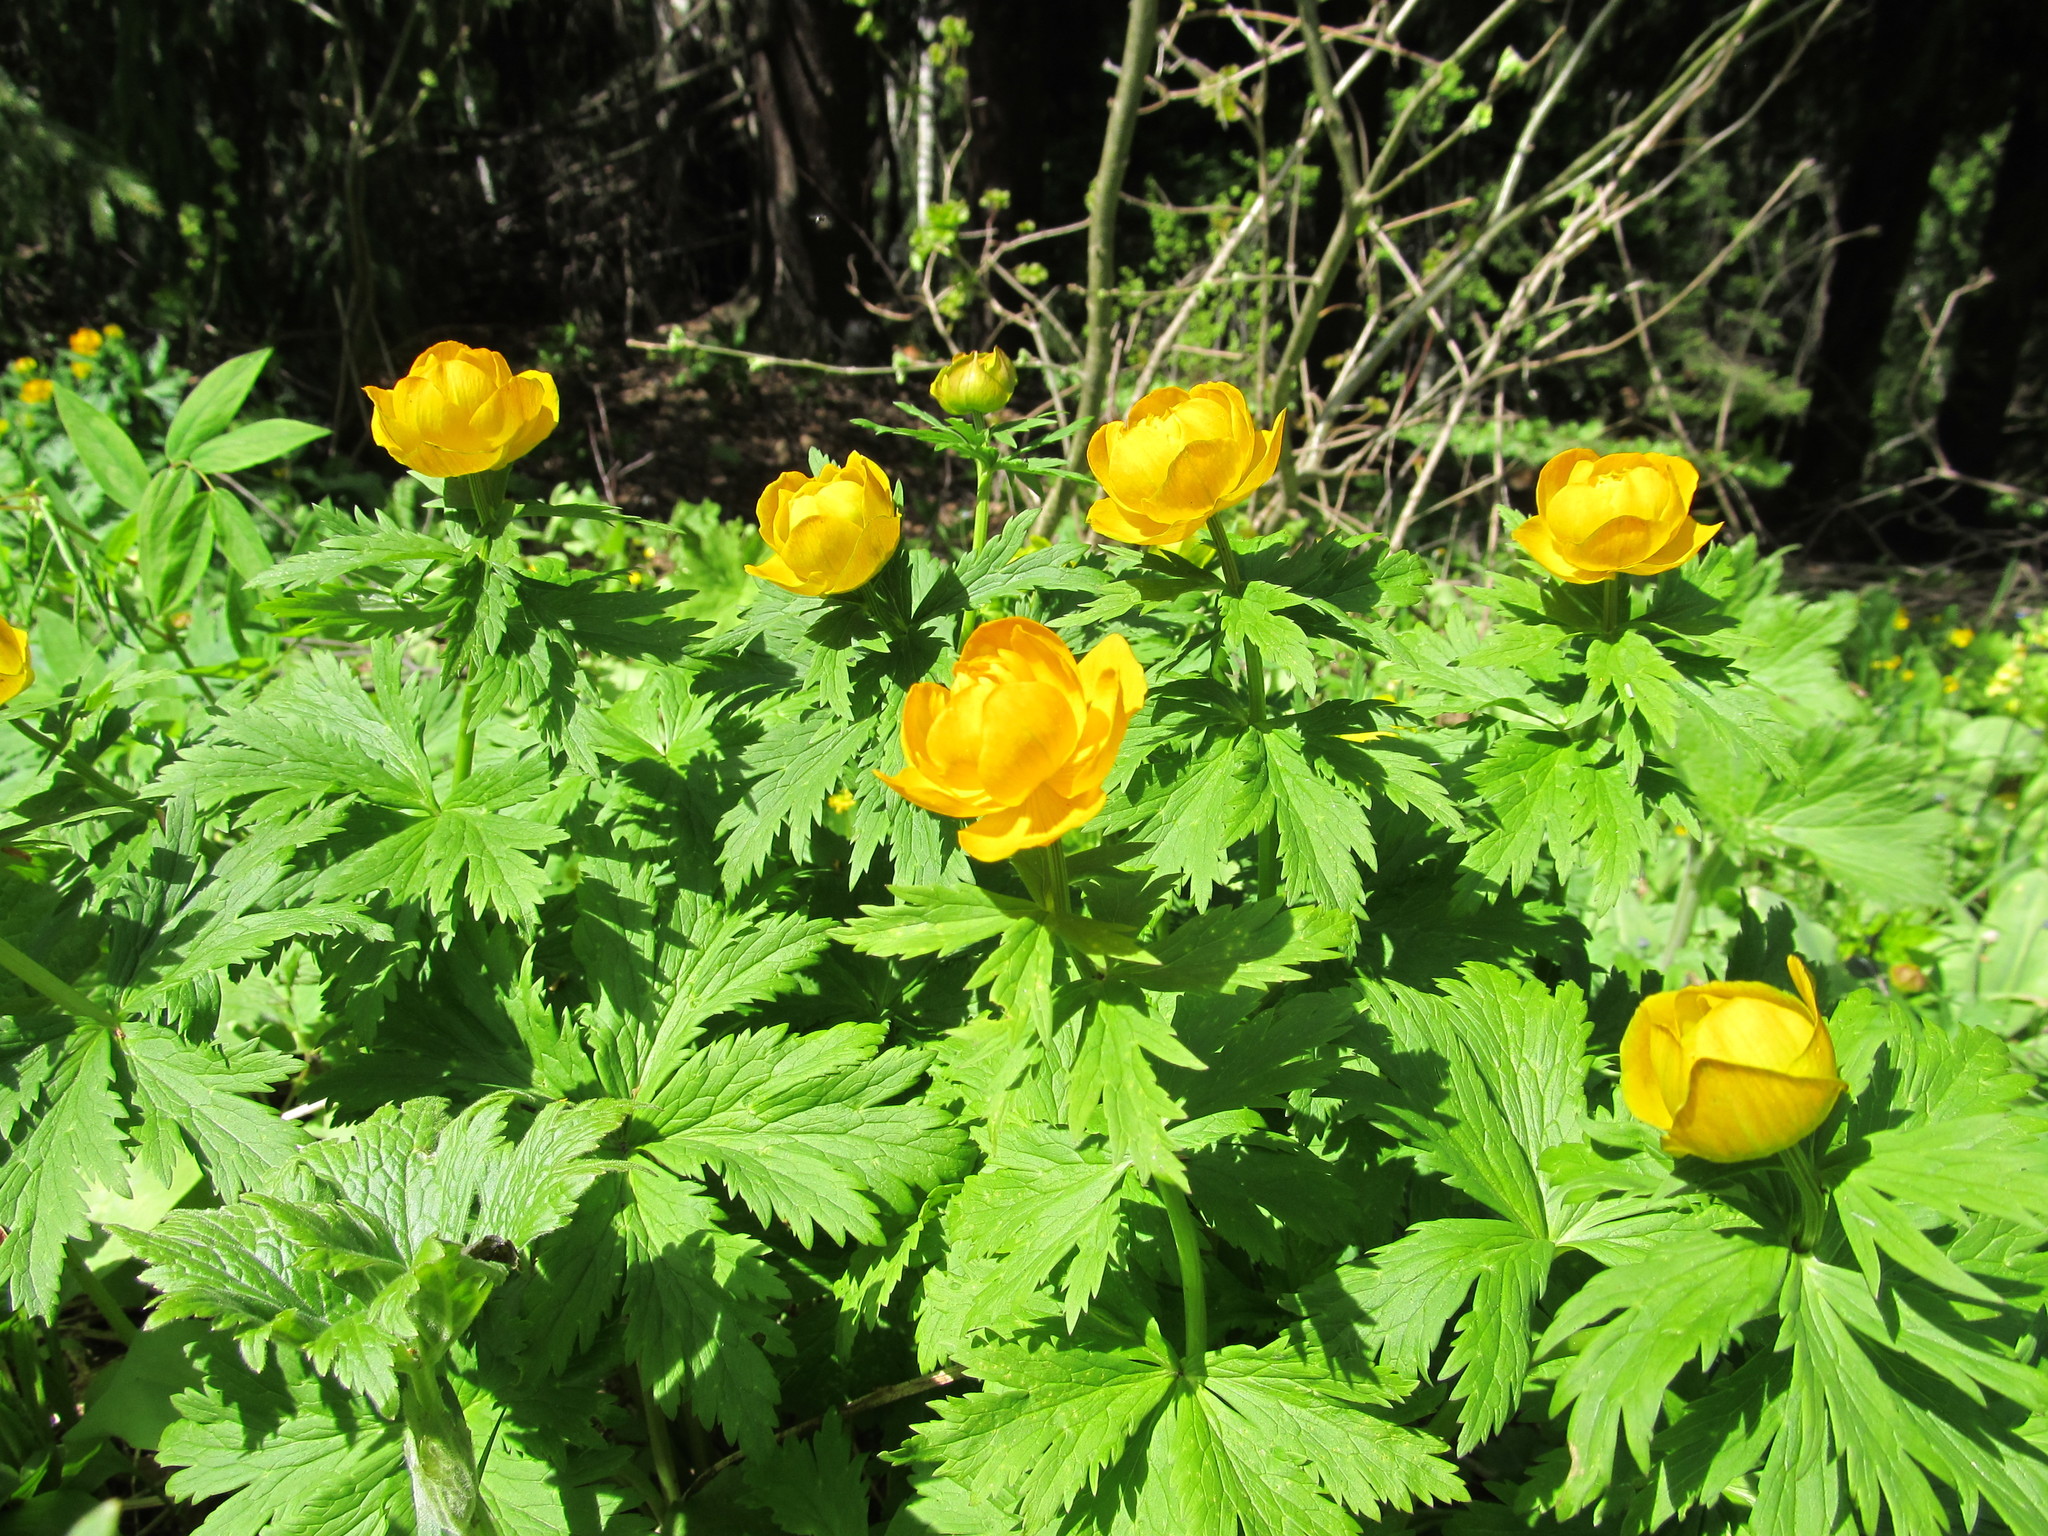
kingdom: Plantae
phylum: Tracheophyta
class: Magnoliopsida
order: Ranunculales
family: Ranunculaceae
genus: Trollius
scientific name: Trollius asiaticus
